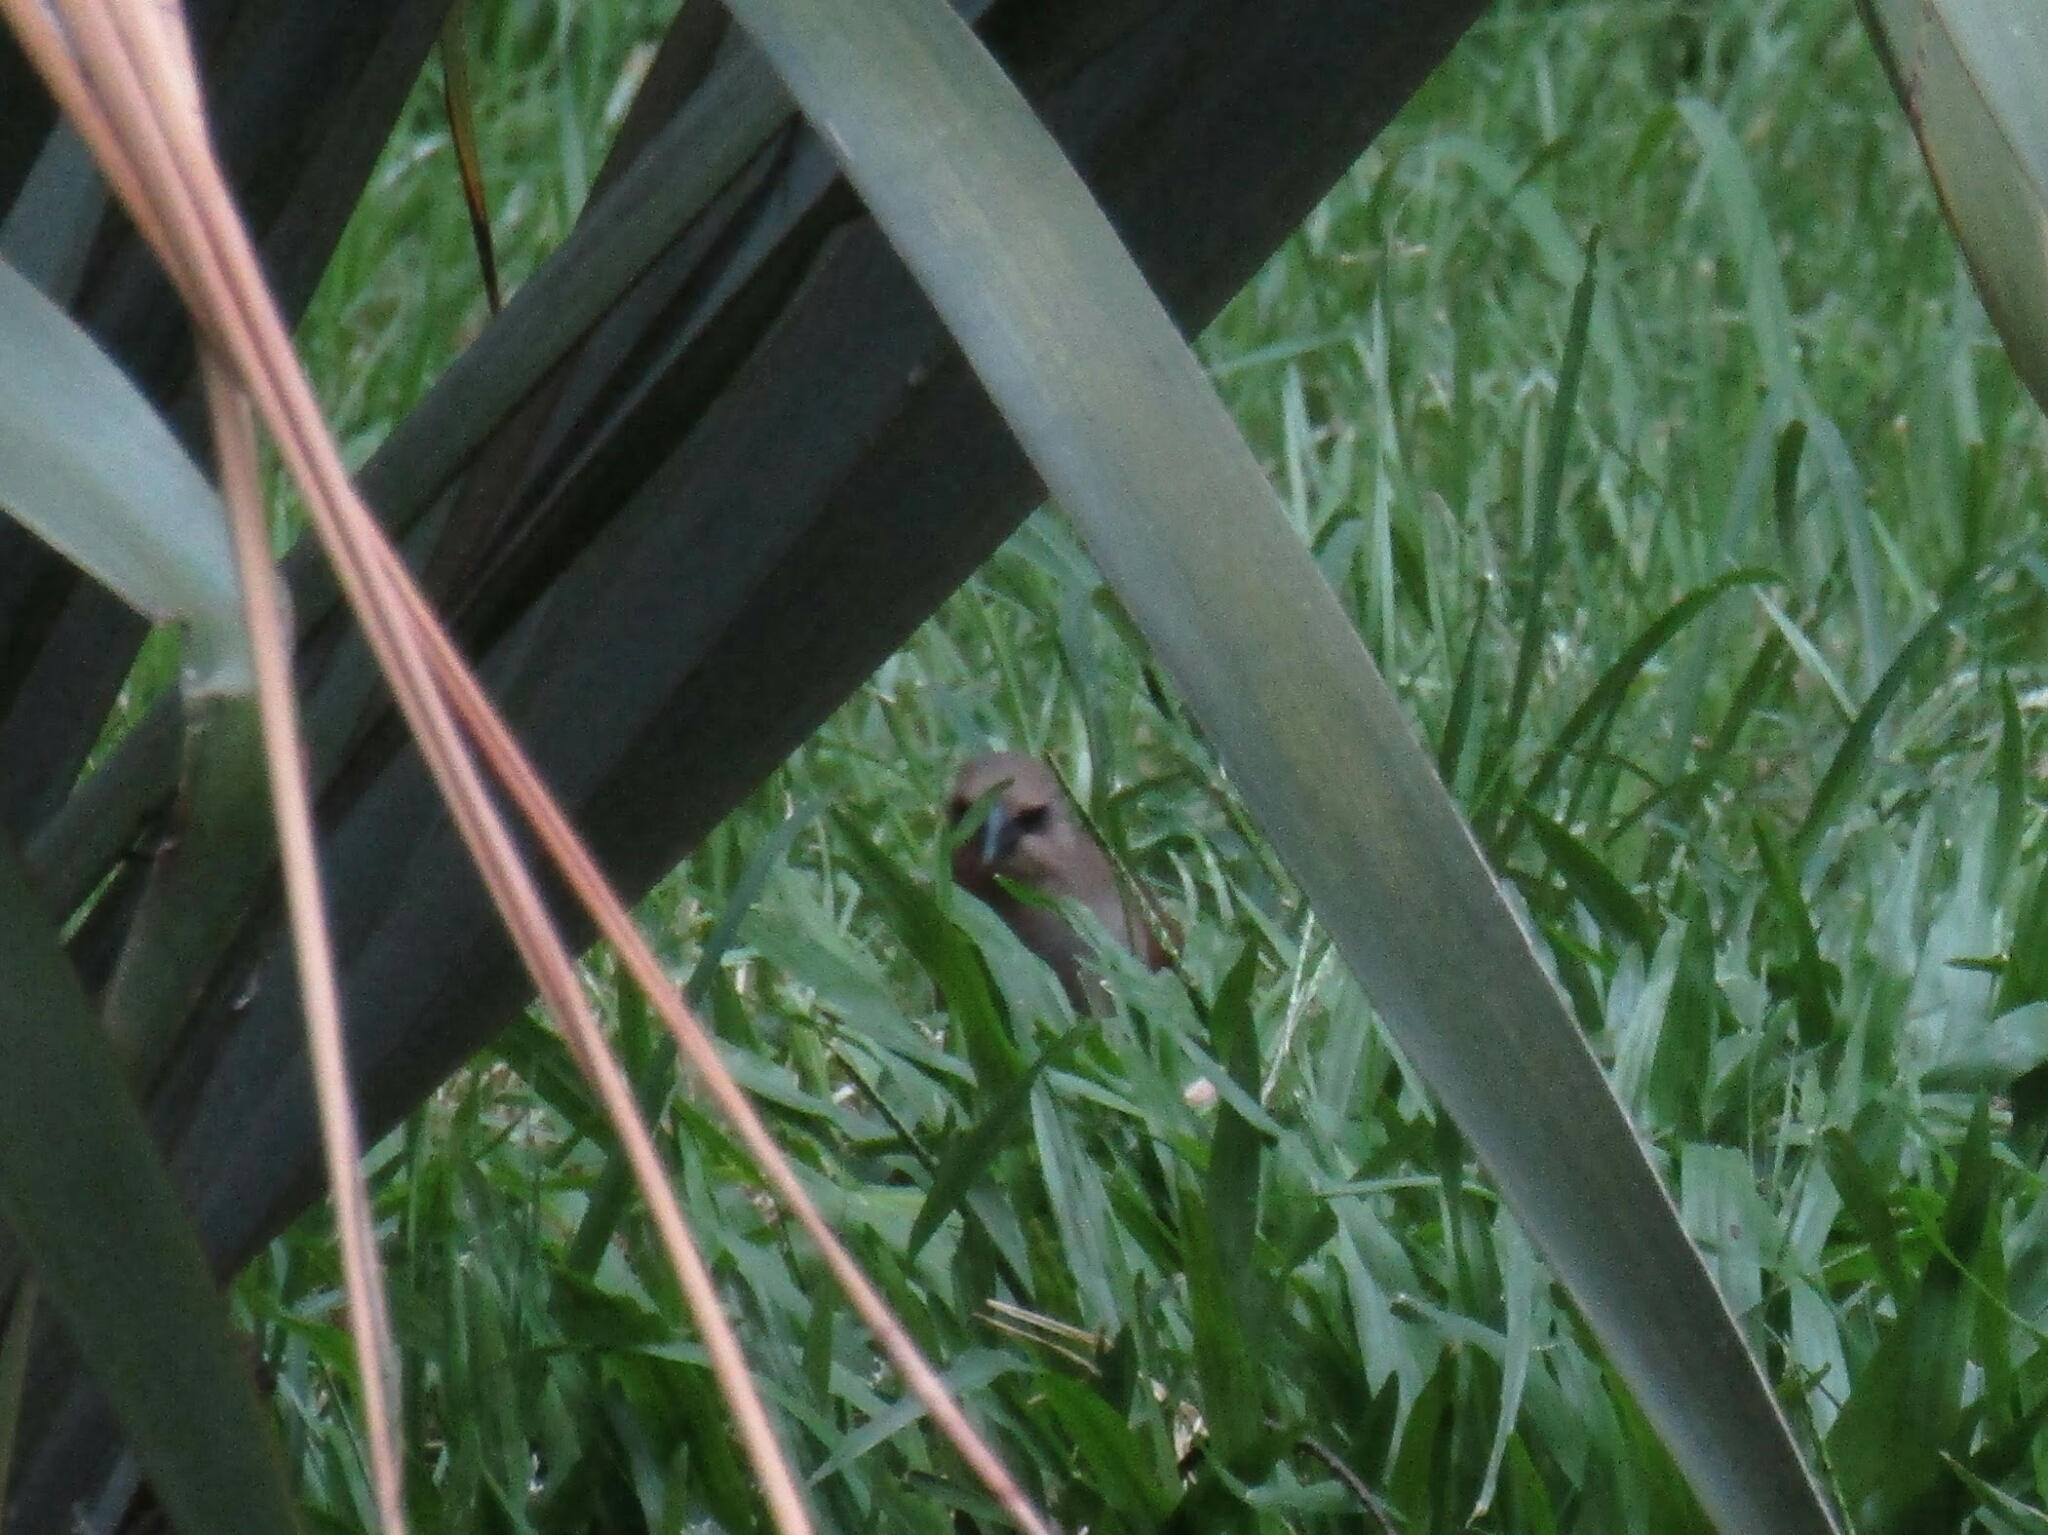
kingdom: Animalia
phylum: Chordata
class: Aves
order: Passeriformes
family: Icteridae
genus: Agelaioides
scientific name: Agelaioides badius
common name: Baywing
